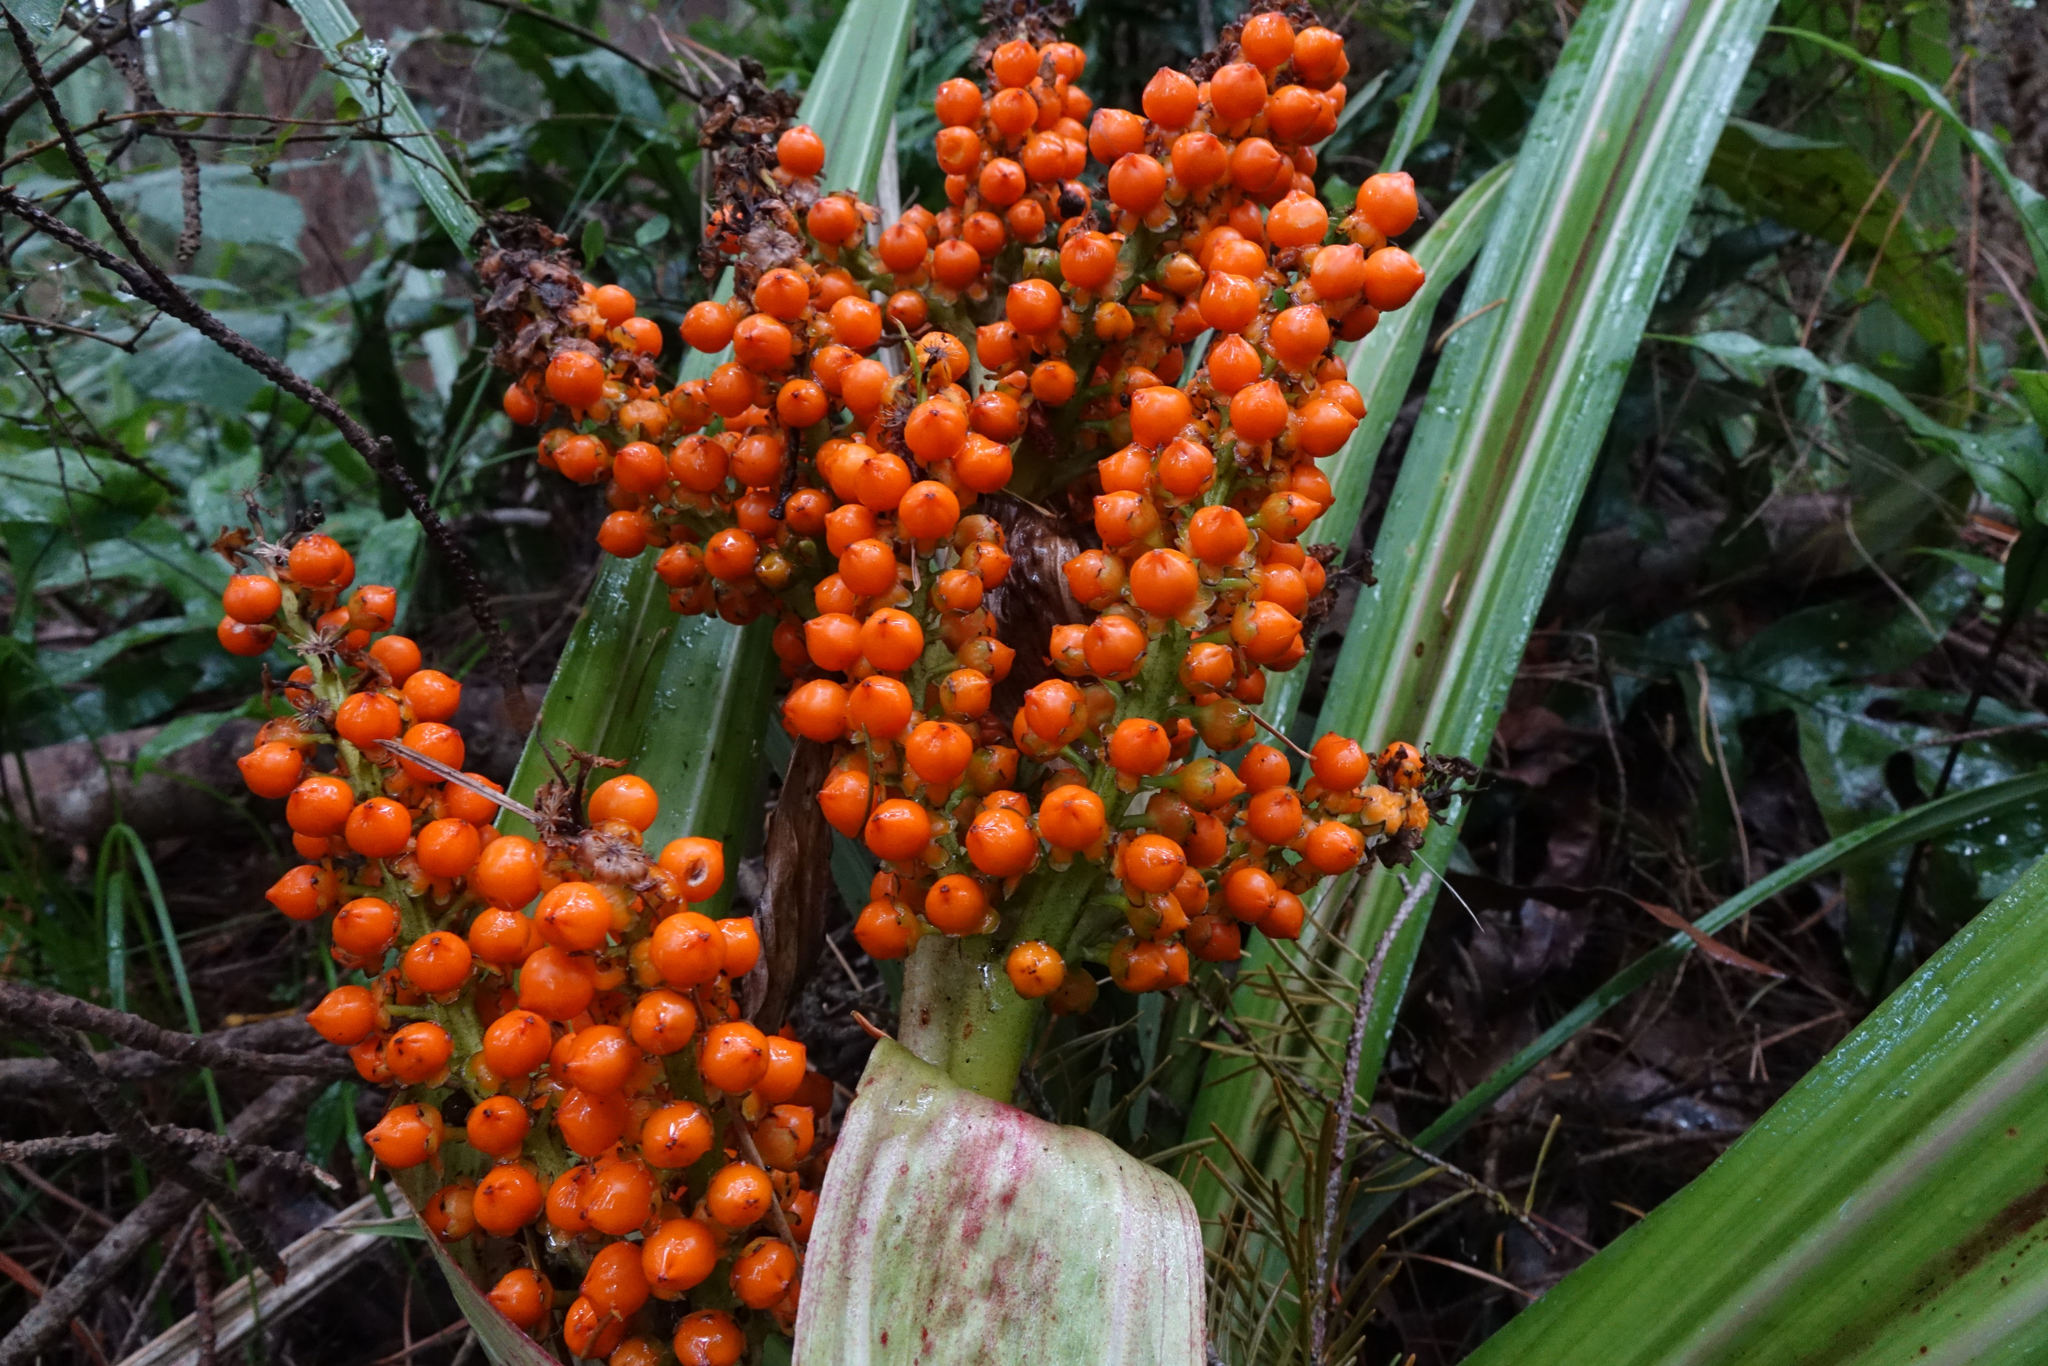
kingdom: Plantae
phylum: Tracheophyta
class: Liliopsida
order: Asparagales
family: Asteliaceae
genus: Astelia
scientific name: Astelia fragrans
